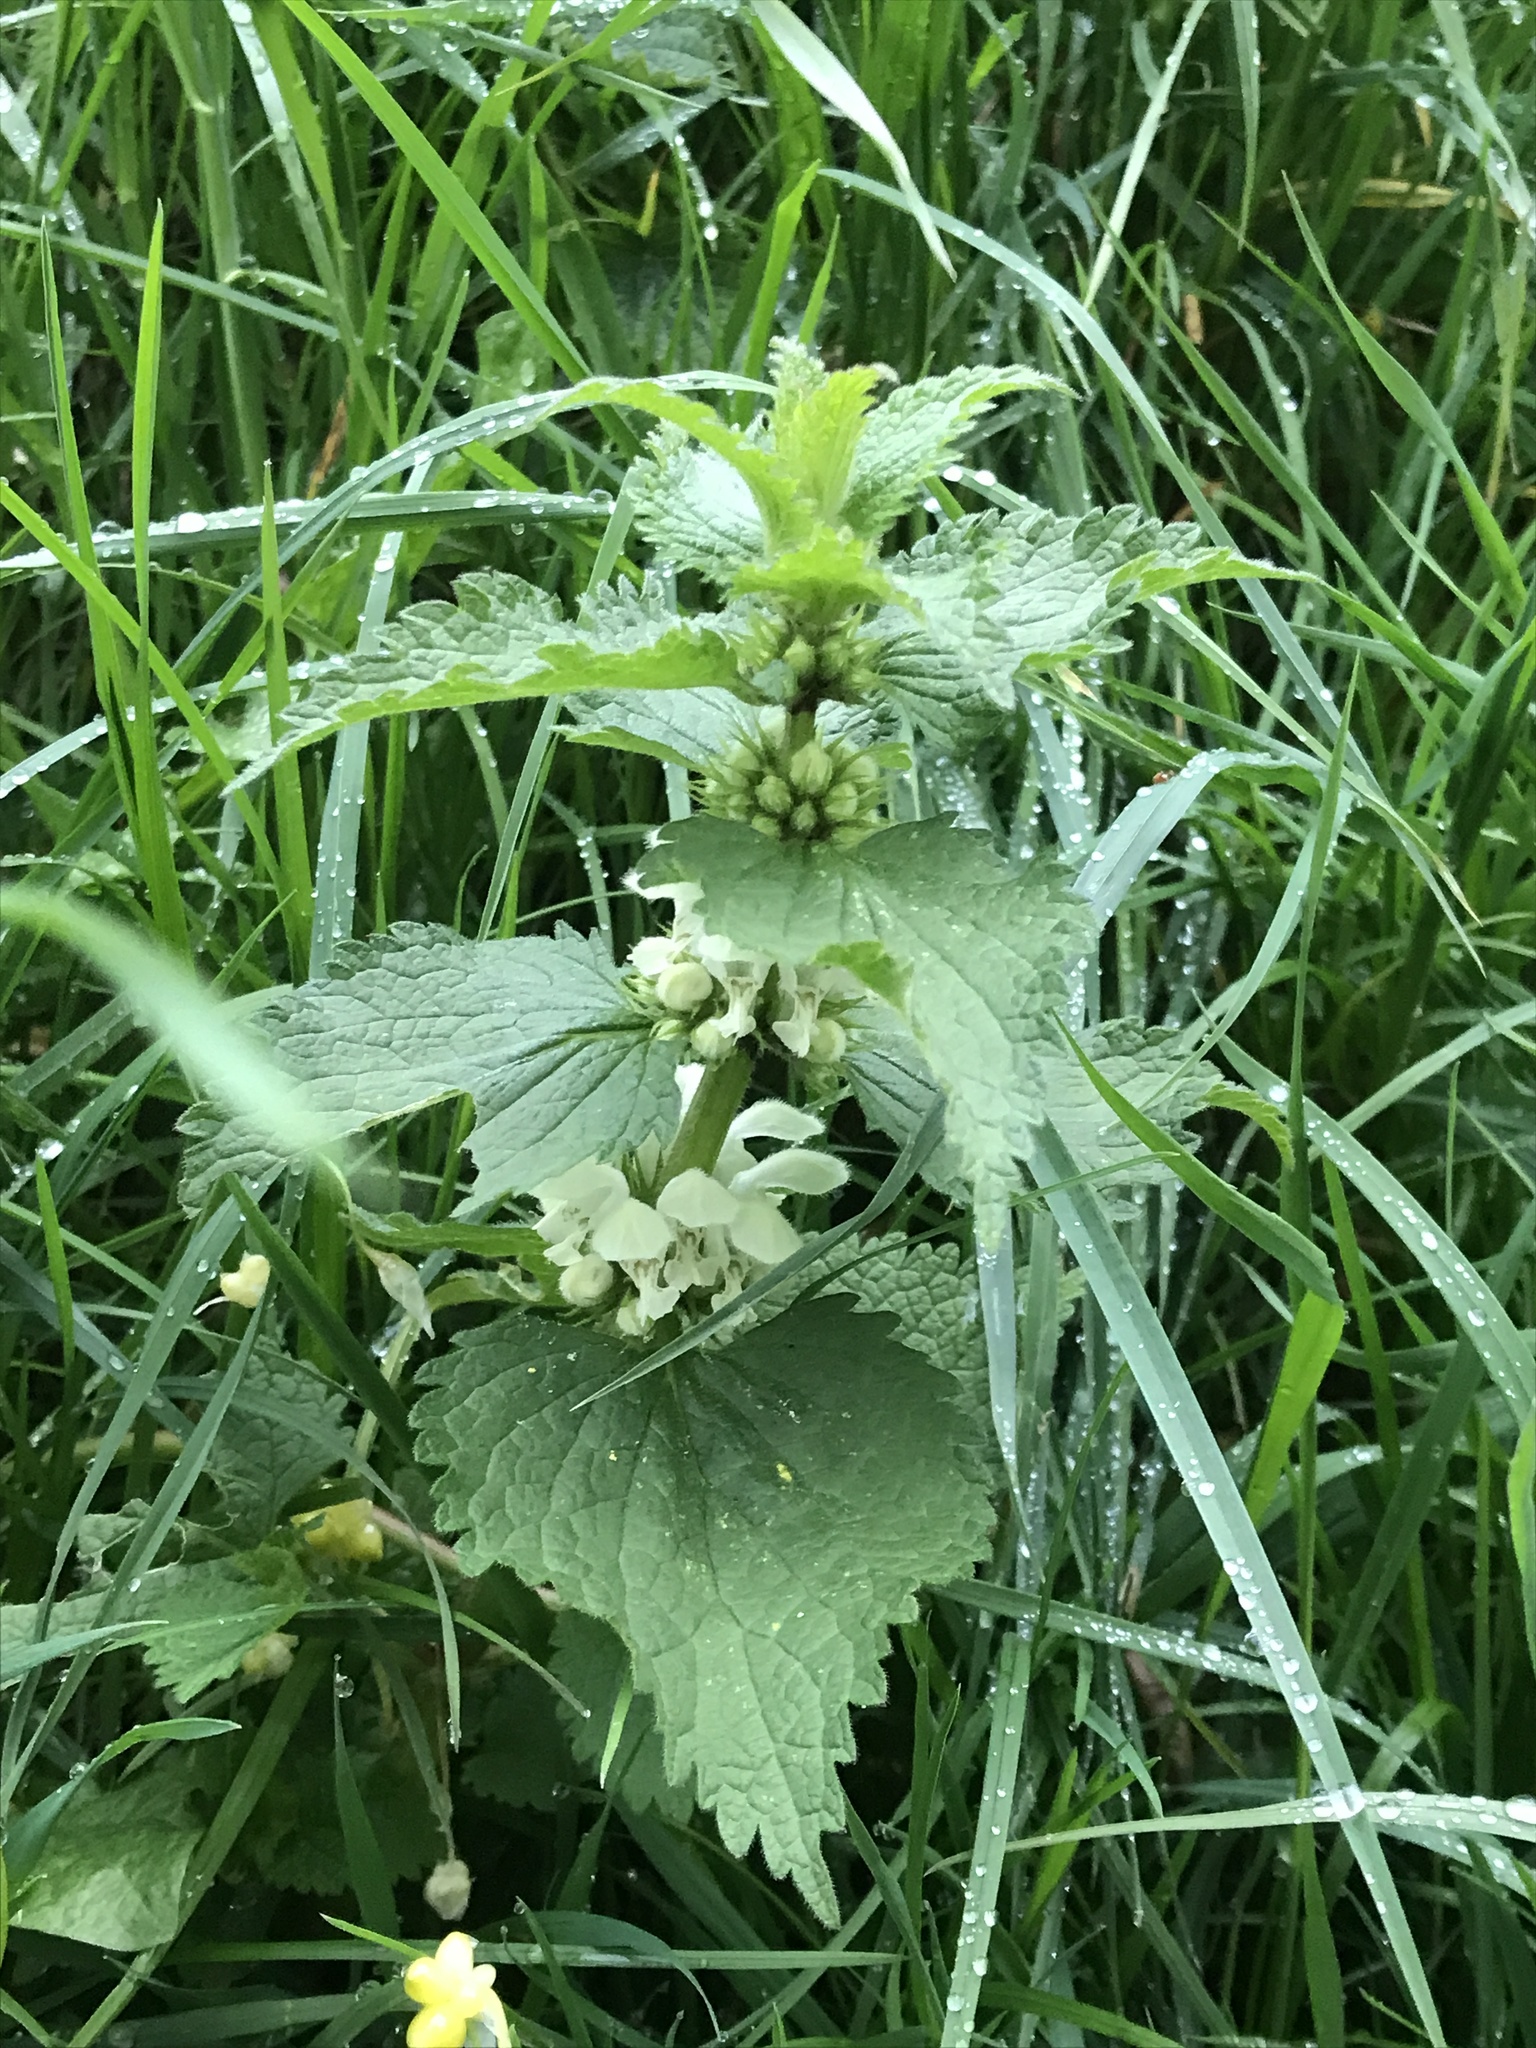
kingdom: Plantae
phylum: Tracheophyta
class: Magnoliopsida
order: Lamiales
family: Lamiaceae
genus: Lamium
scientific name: Lamium album
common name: White dead-nettle
